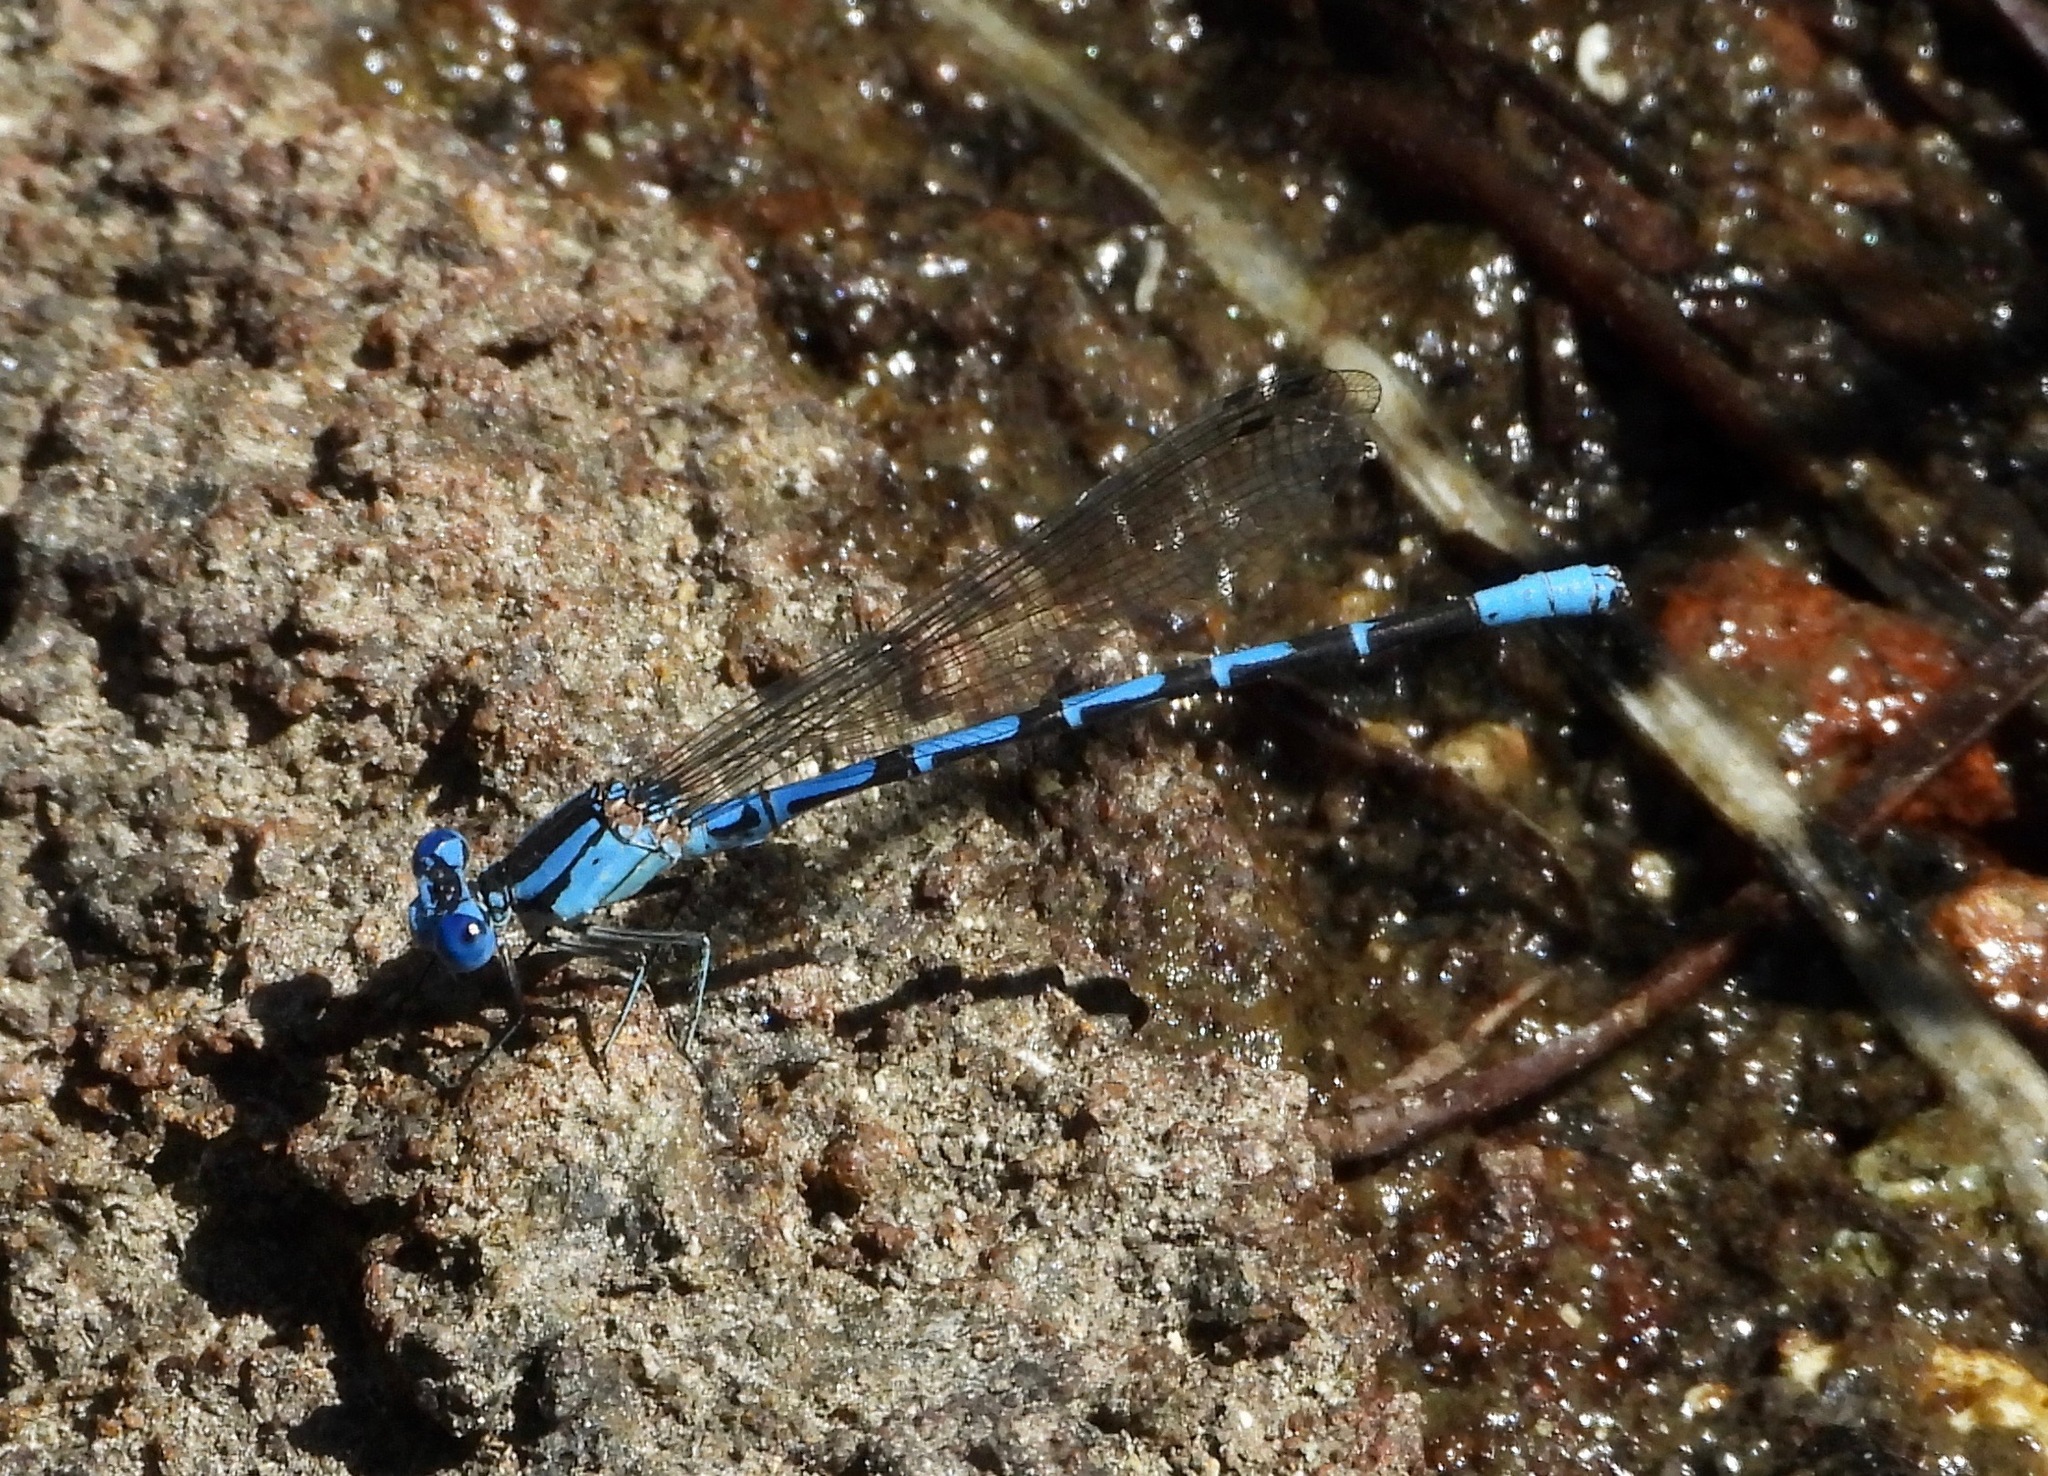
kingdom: Animalia
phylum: Arthropoda
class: Insecta
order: Odonata
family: Coenagrionidae
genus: Argia
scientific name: Argia vivida
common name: Vivid dancer
